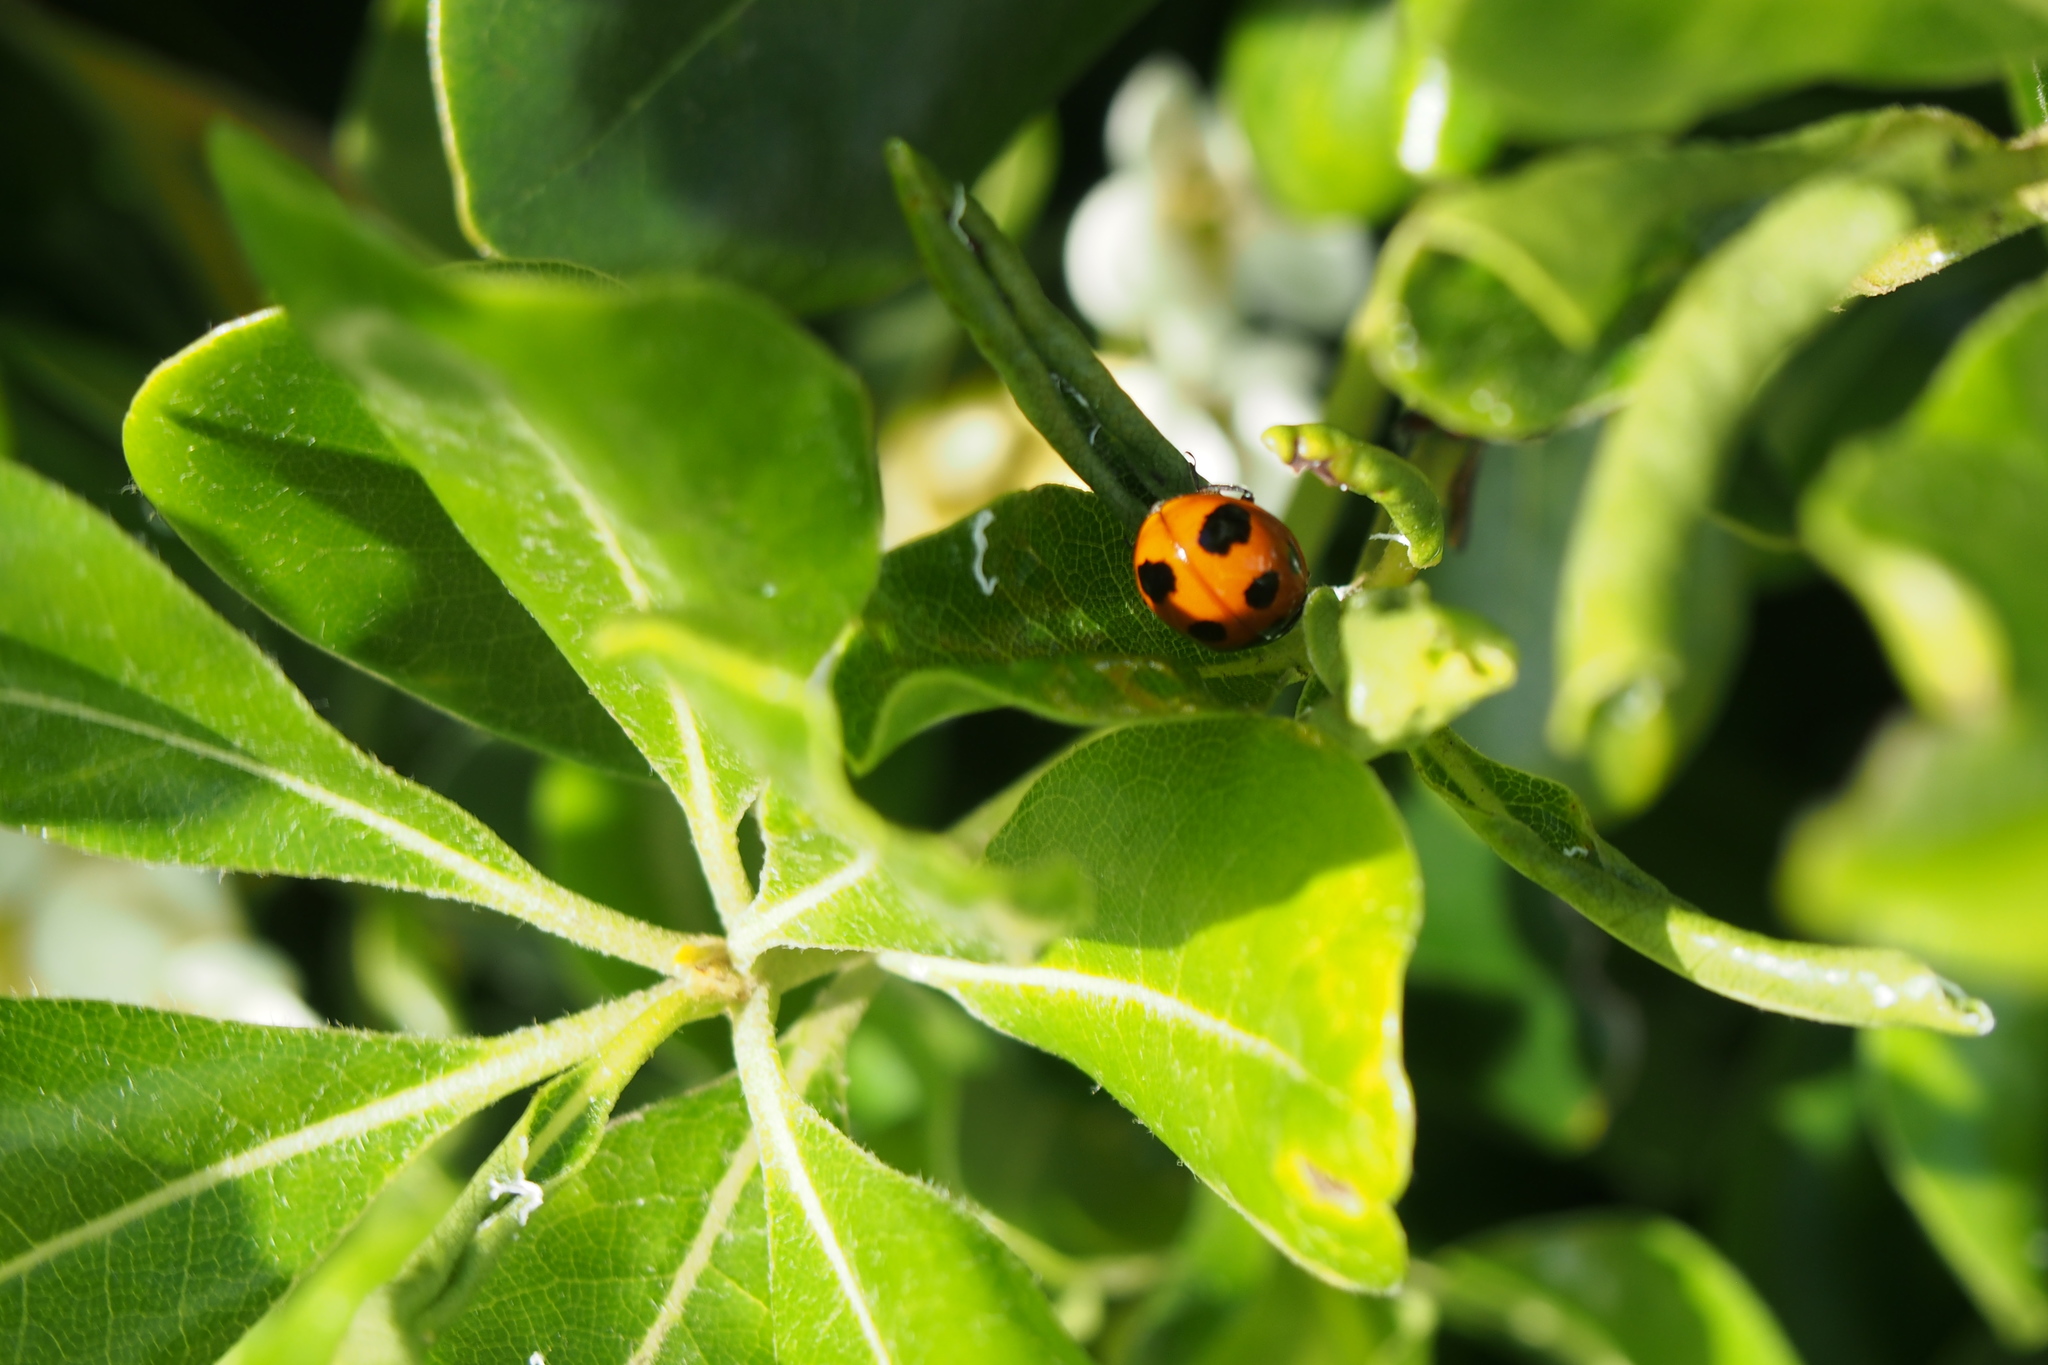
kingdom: Animalia
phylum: Arthropoda
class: Insecta
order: Coleoptera
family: Coccinellidae
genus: Coccinella
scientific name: Coccinella septempunctata
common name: Sevenspotted lady beetle
